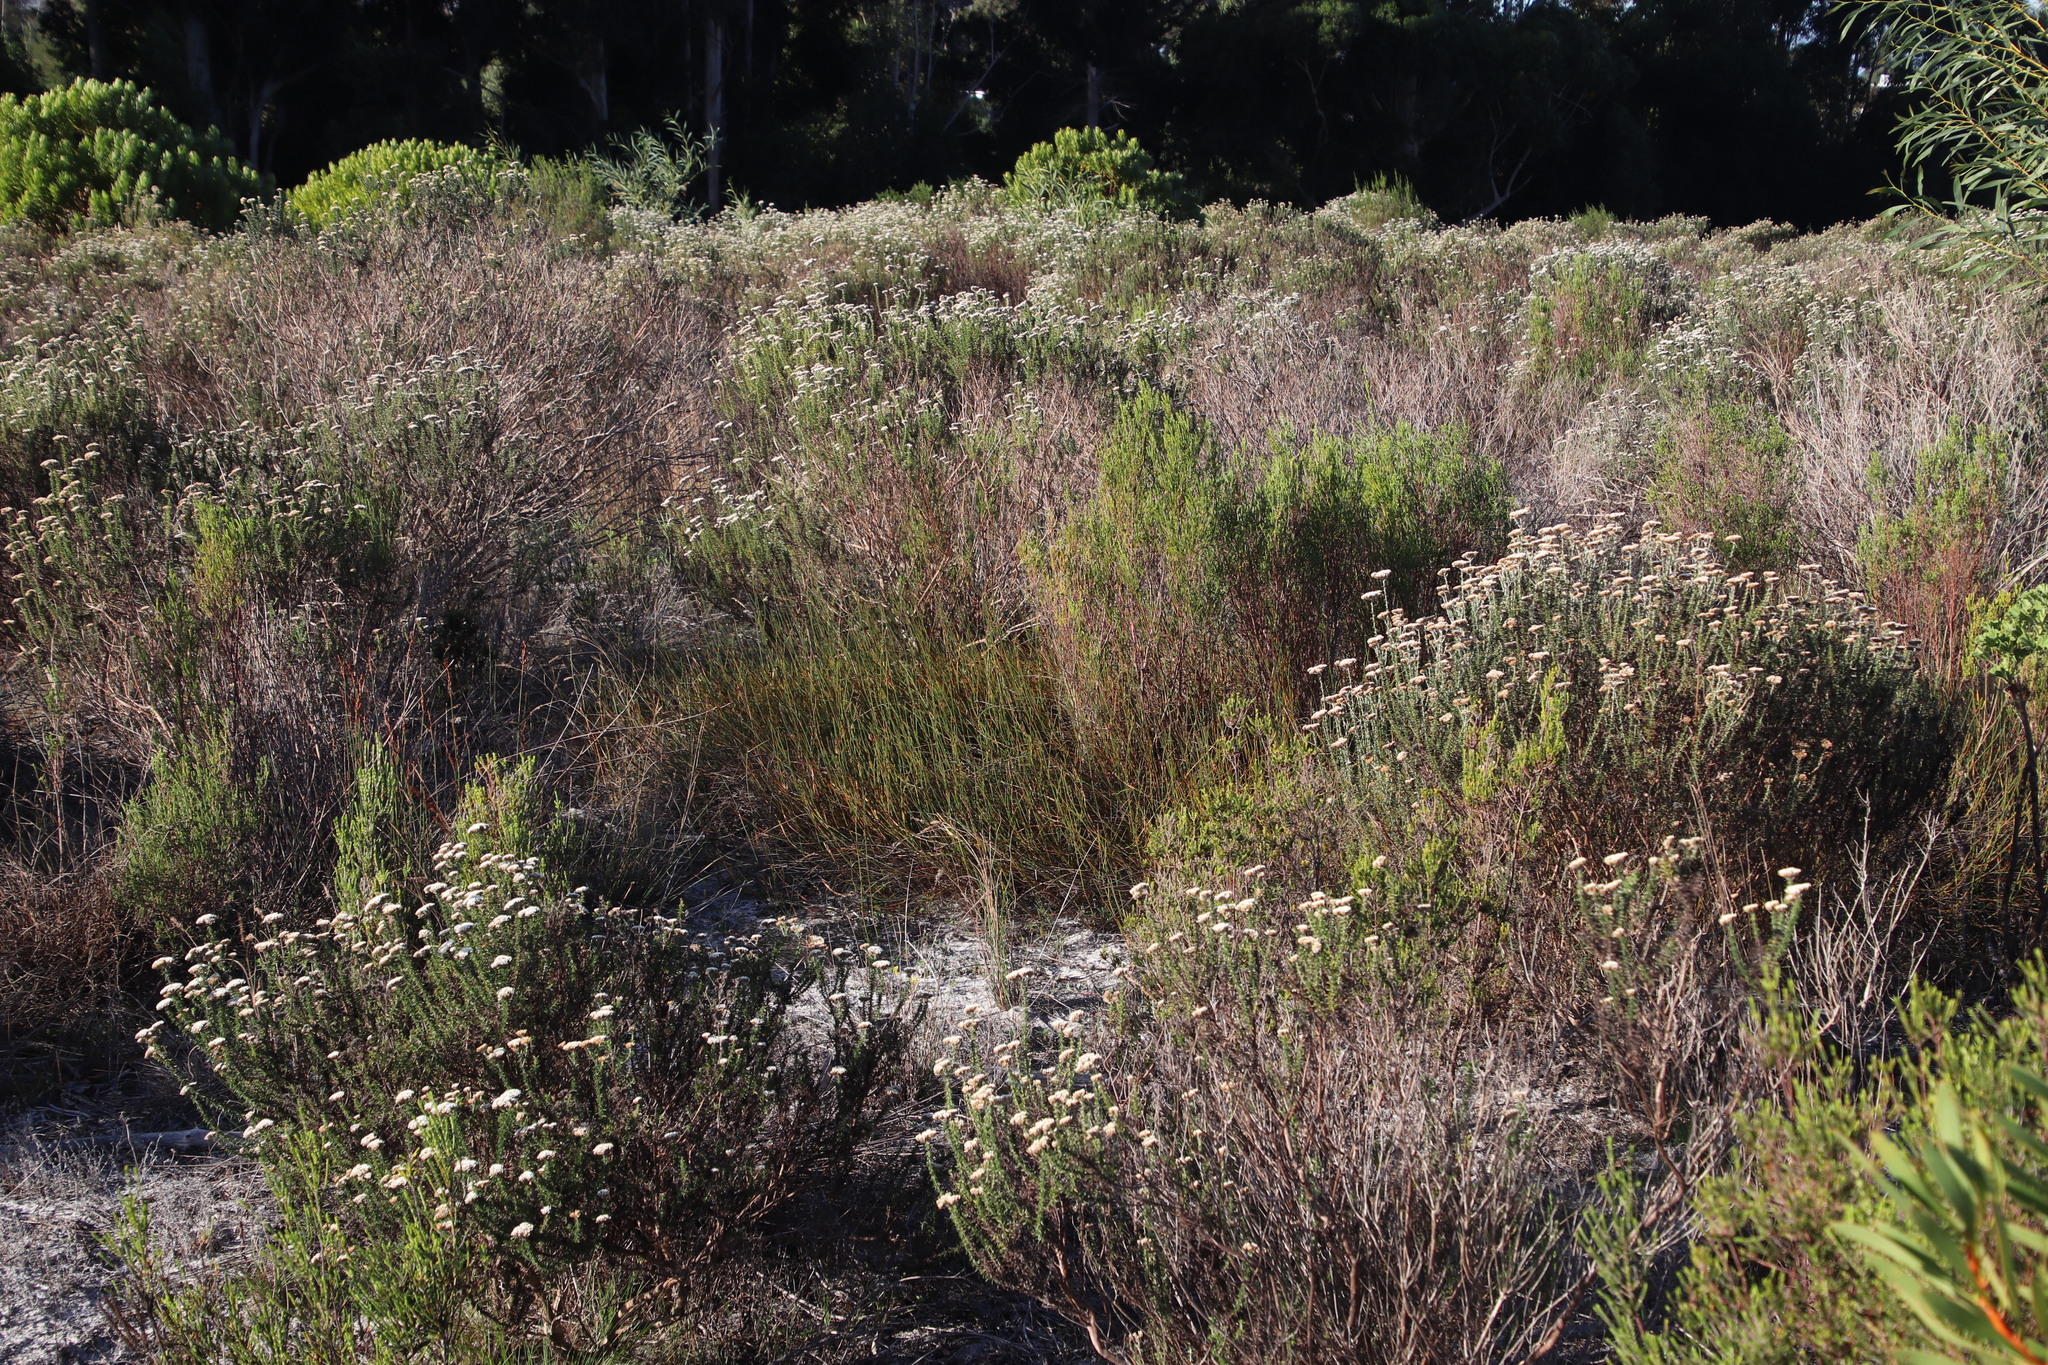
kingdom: Plantae
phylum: Tracheophyta
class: Liliopsida
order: Poales
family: Restionaceae
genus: Willdenowia
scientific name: Willdenowia sulcata
